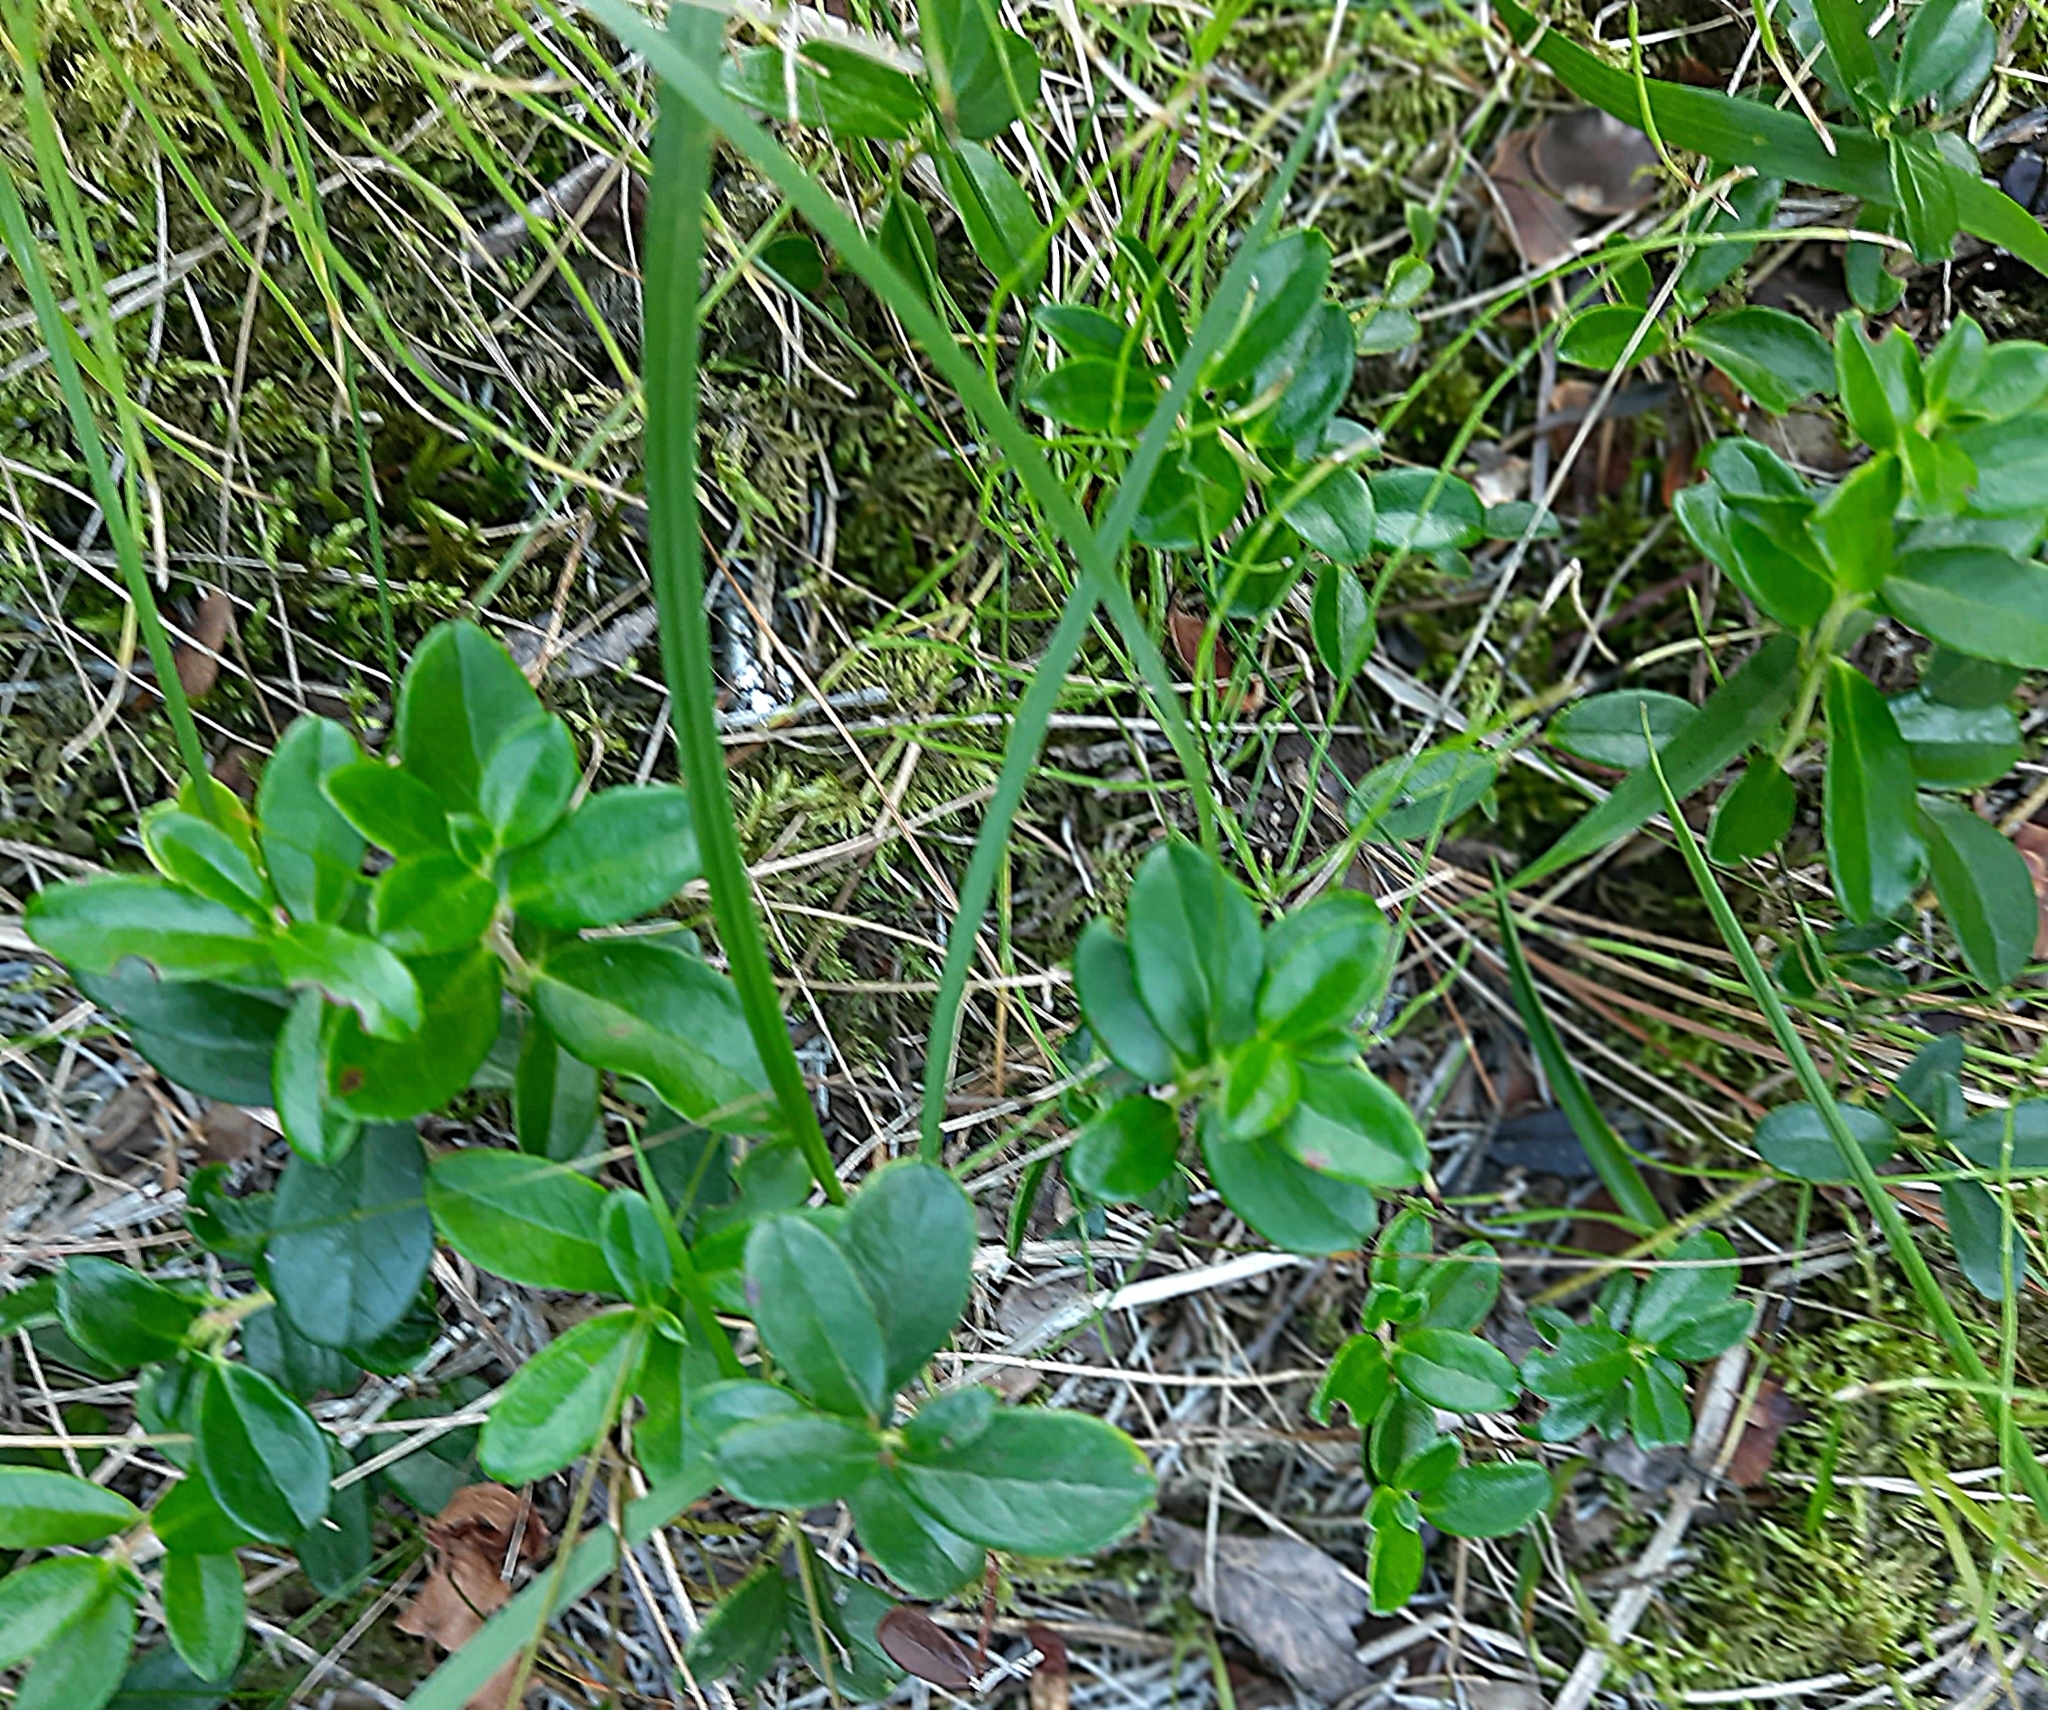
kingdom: Plantae
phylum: Tracheophyta
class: Magnoliopsida
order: Ericales
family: Ericaceae
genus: Vaccinium
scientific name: Vaccinium vitis-idaea
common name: Cowberry
